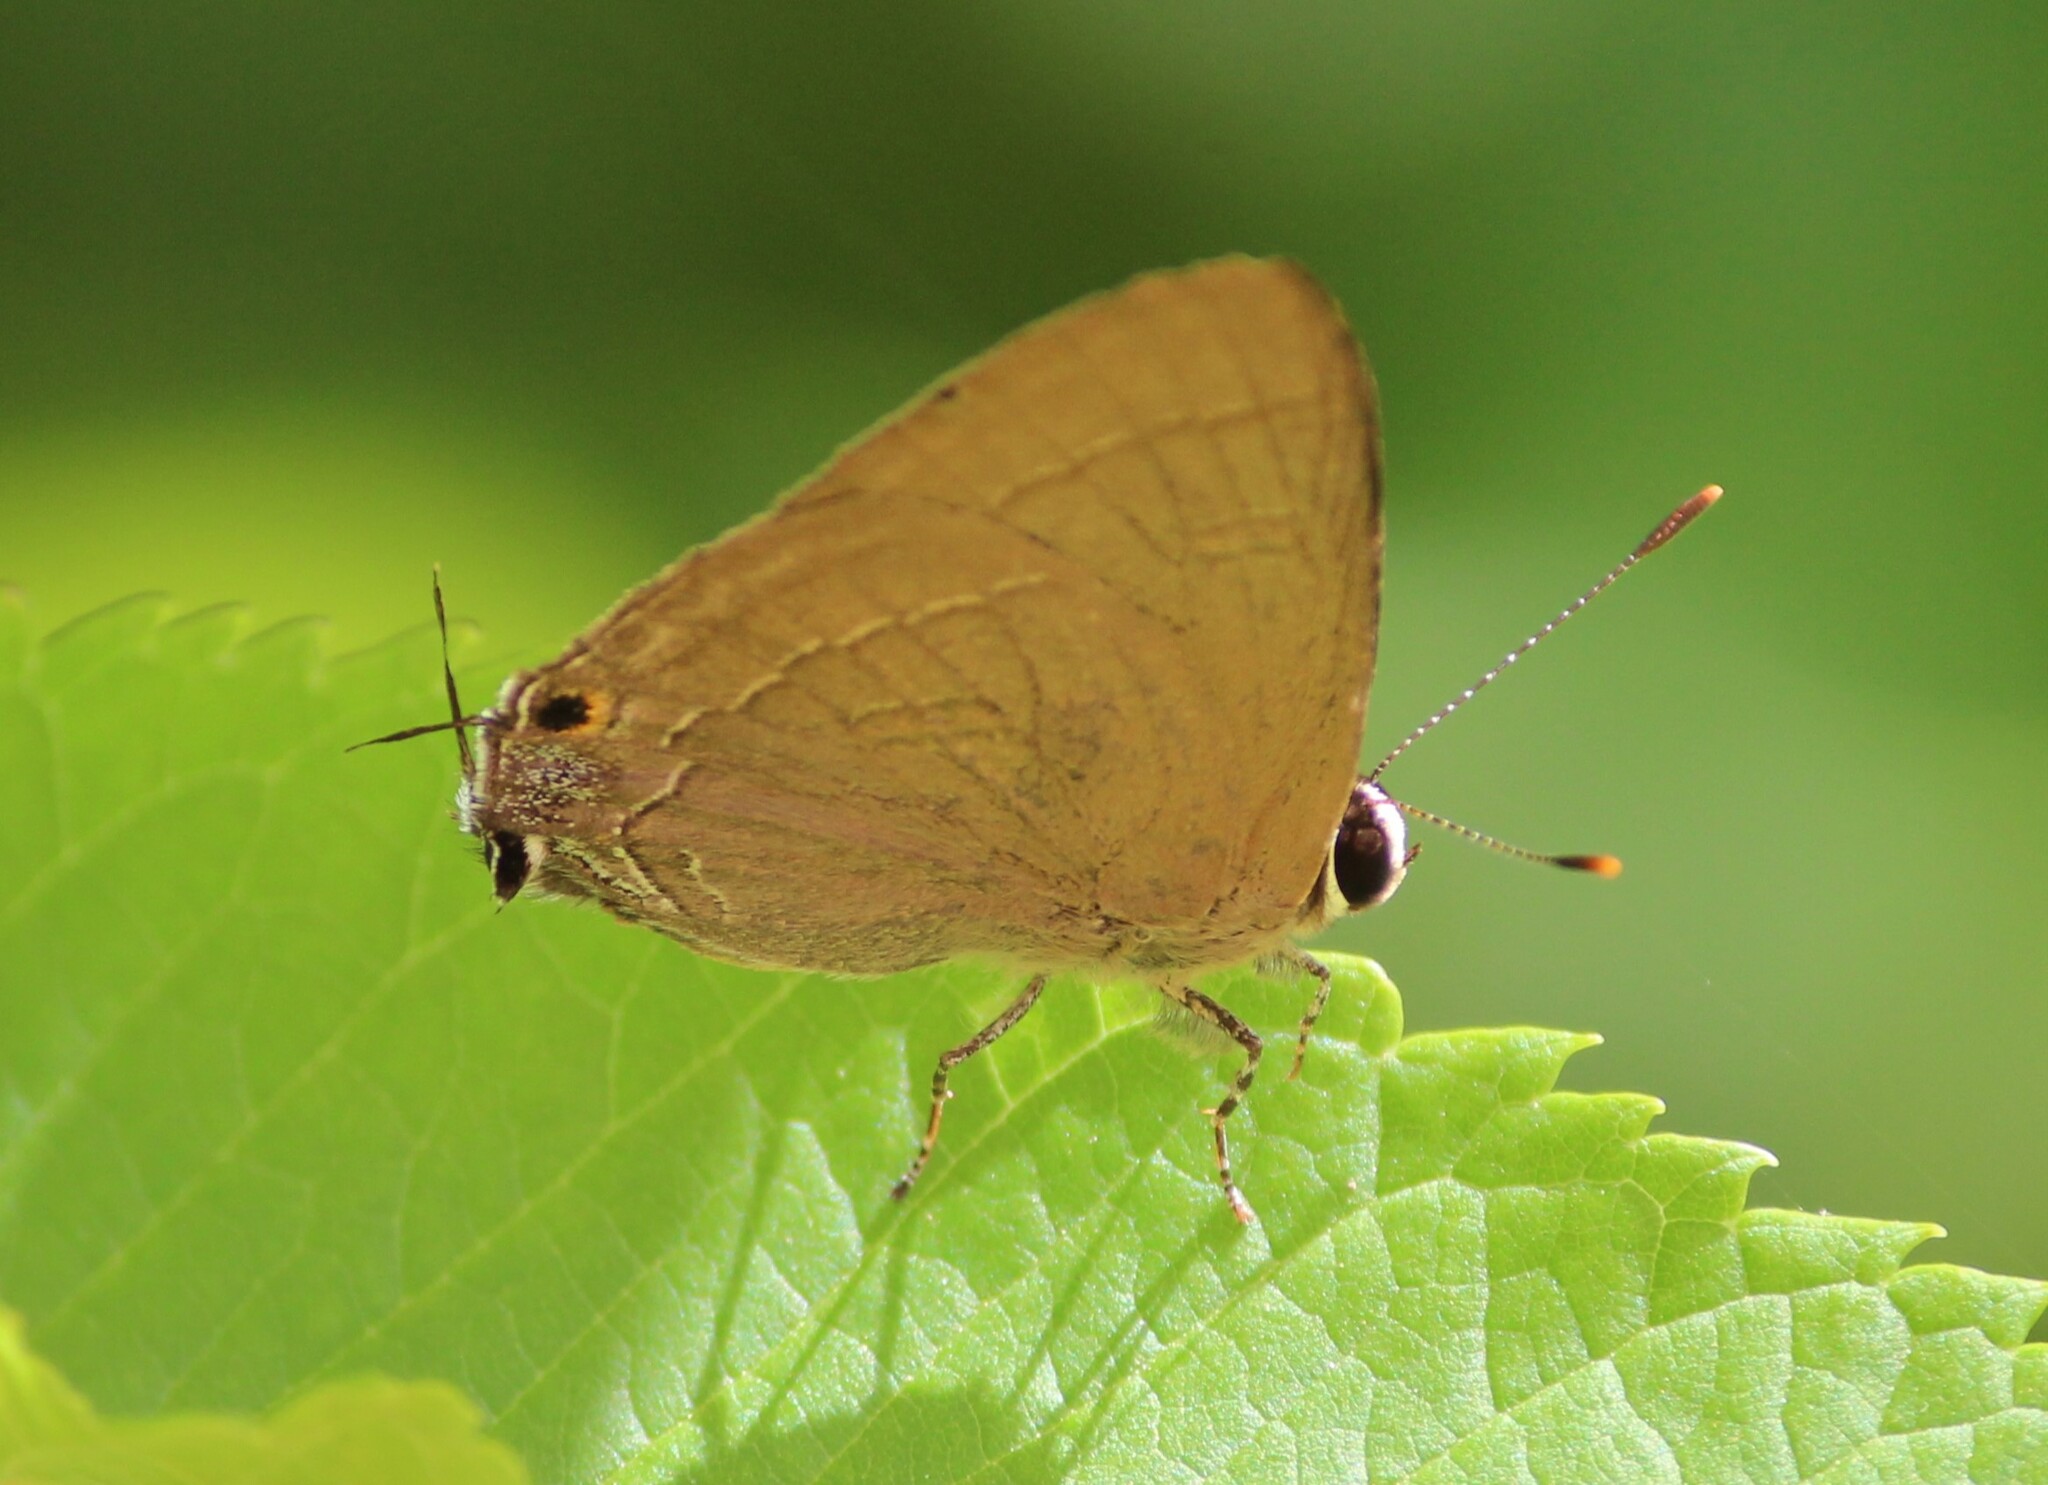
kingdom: Animalia
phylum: Arthropoda
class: Insecta
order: Lepidoptera
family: Lycaenidae
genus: Rapala
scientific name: Rapala manea
